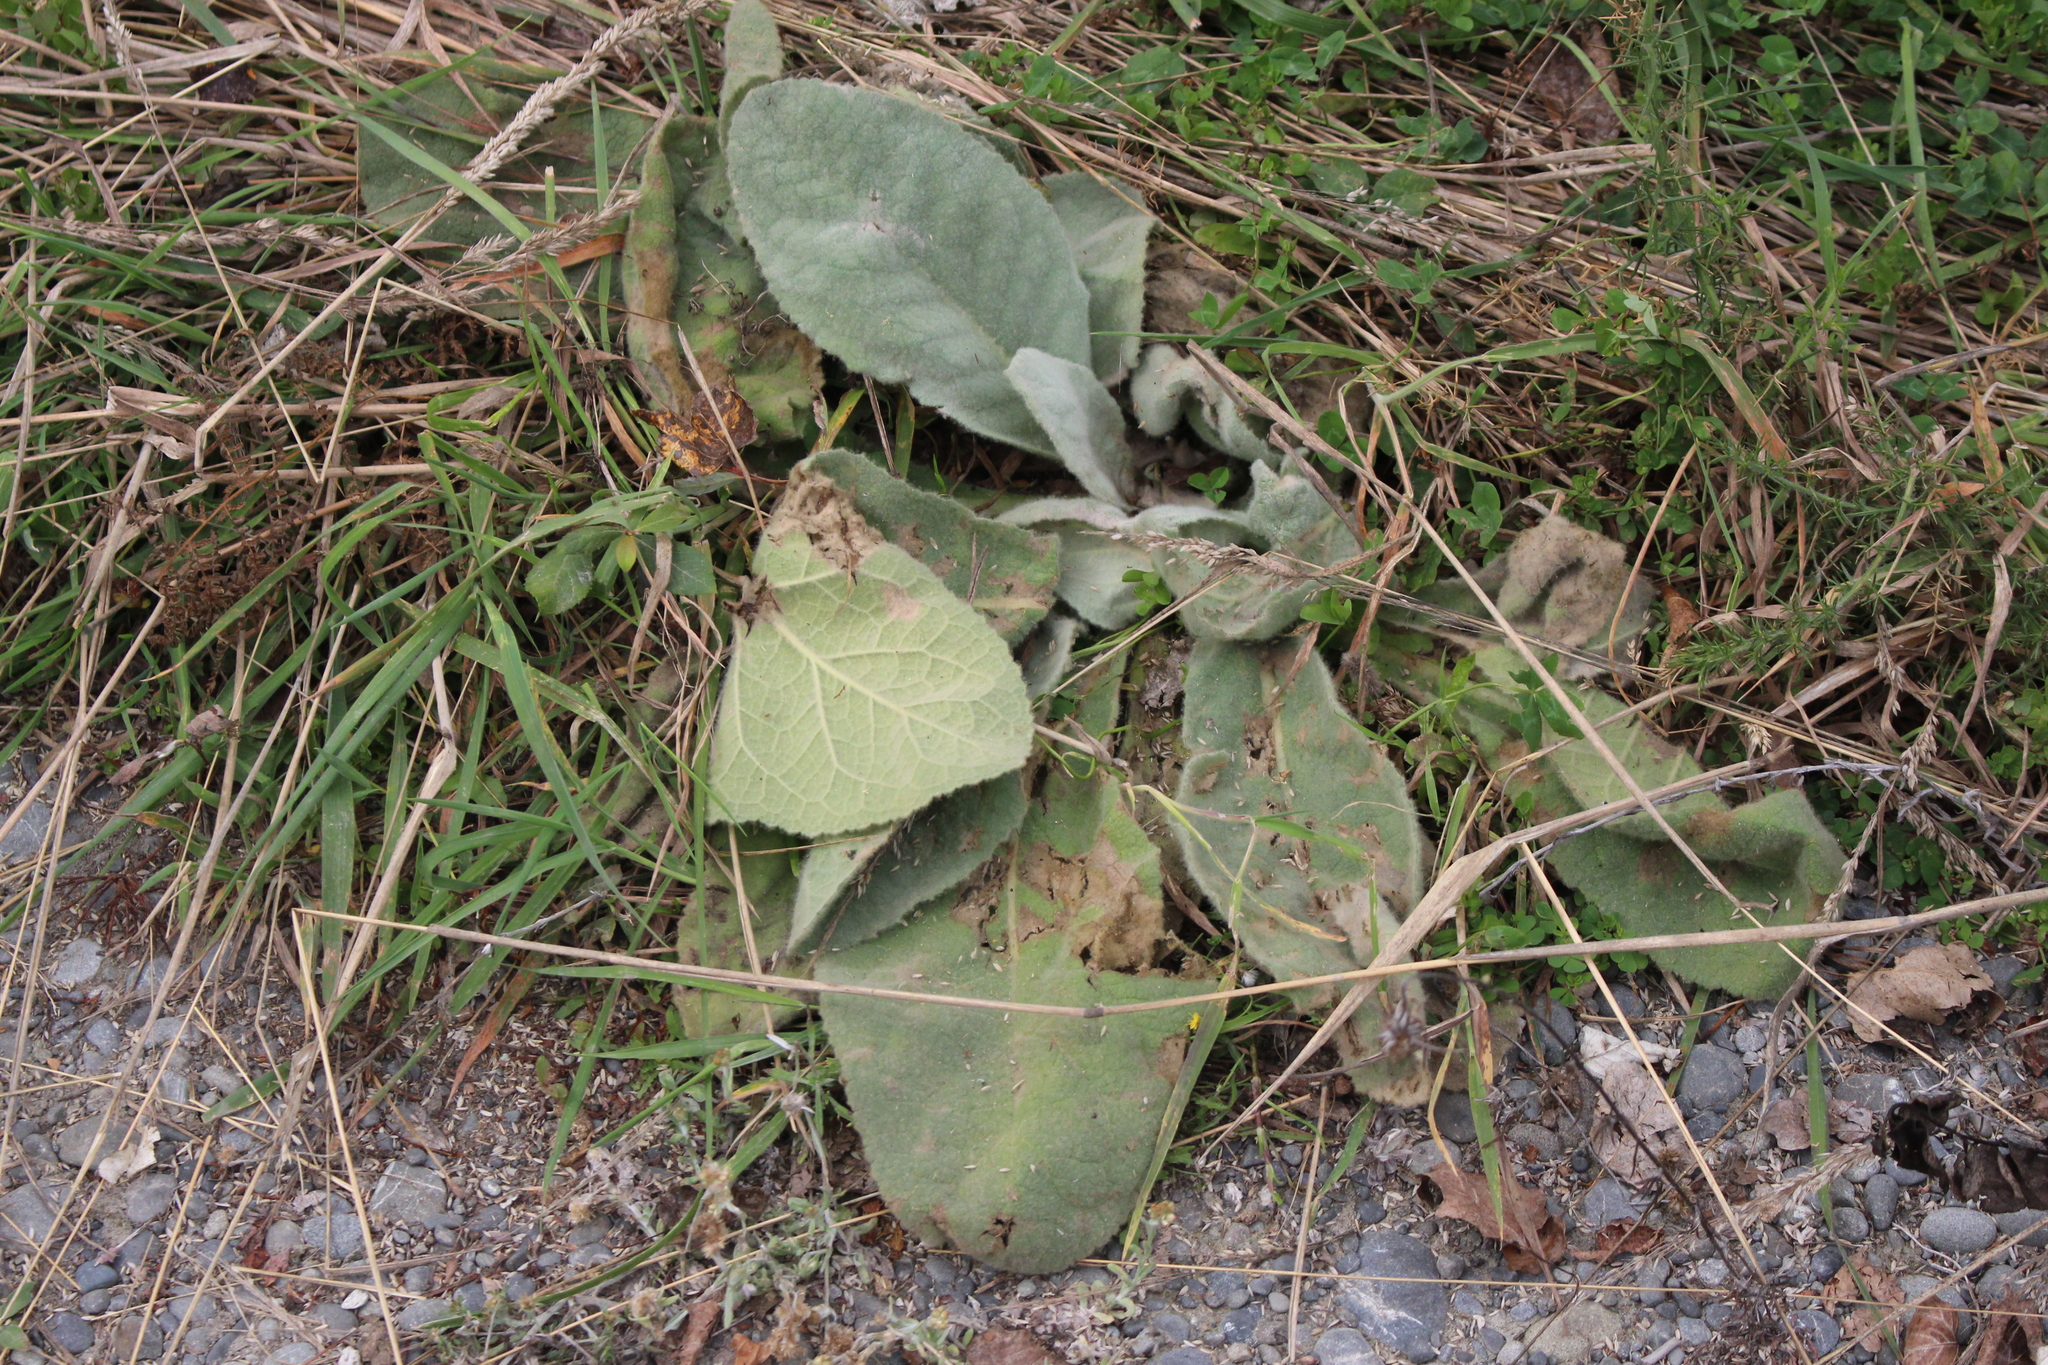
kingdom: Plantae
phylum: Tracheophyta
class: Magnoliopsida
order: Lamiales
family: Scrophulariaceae
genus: Verbascum
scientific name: Verbascum thapsus
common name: Common mullein
